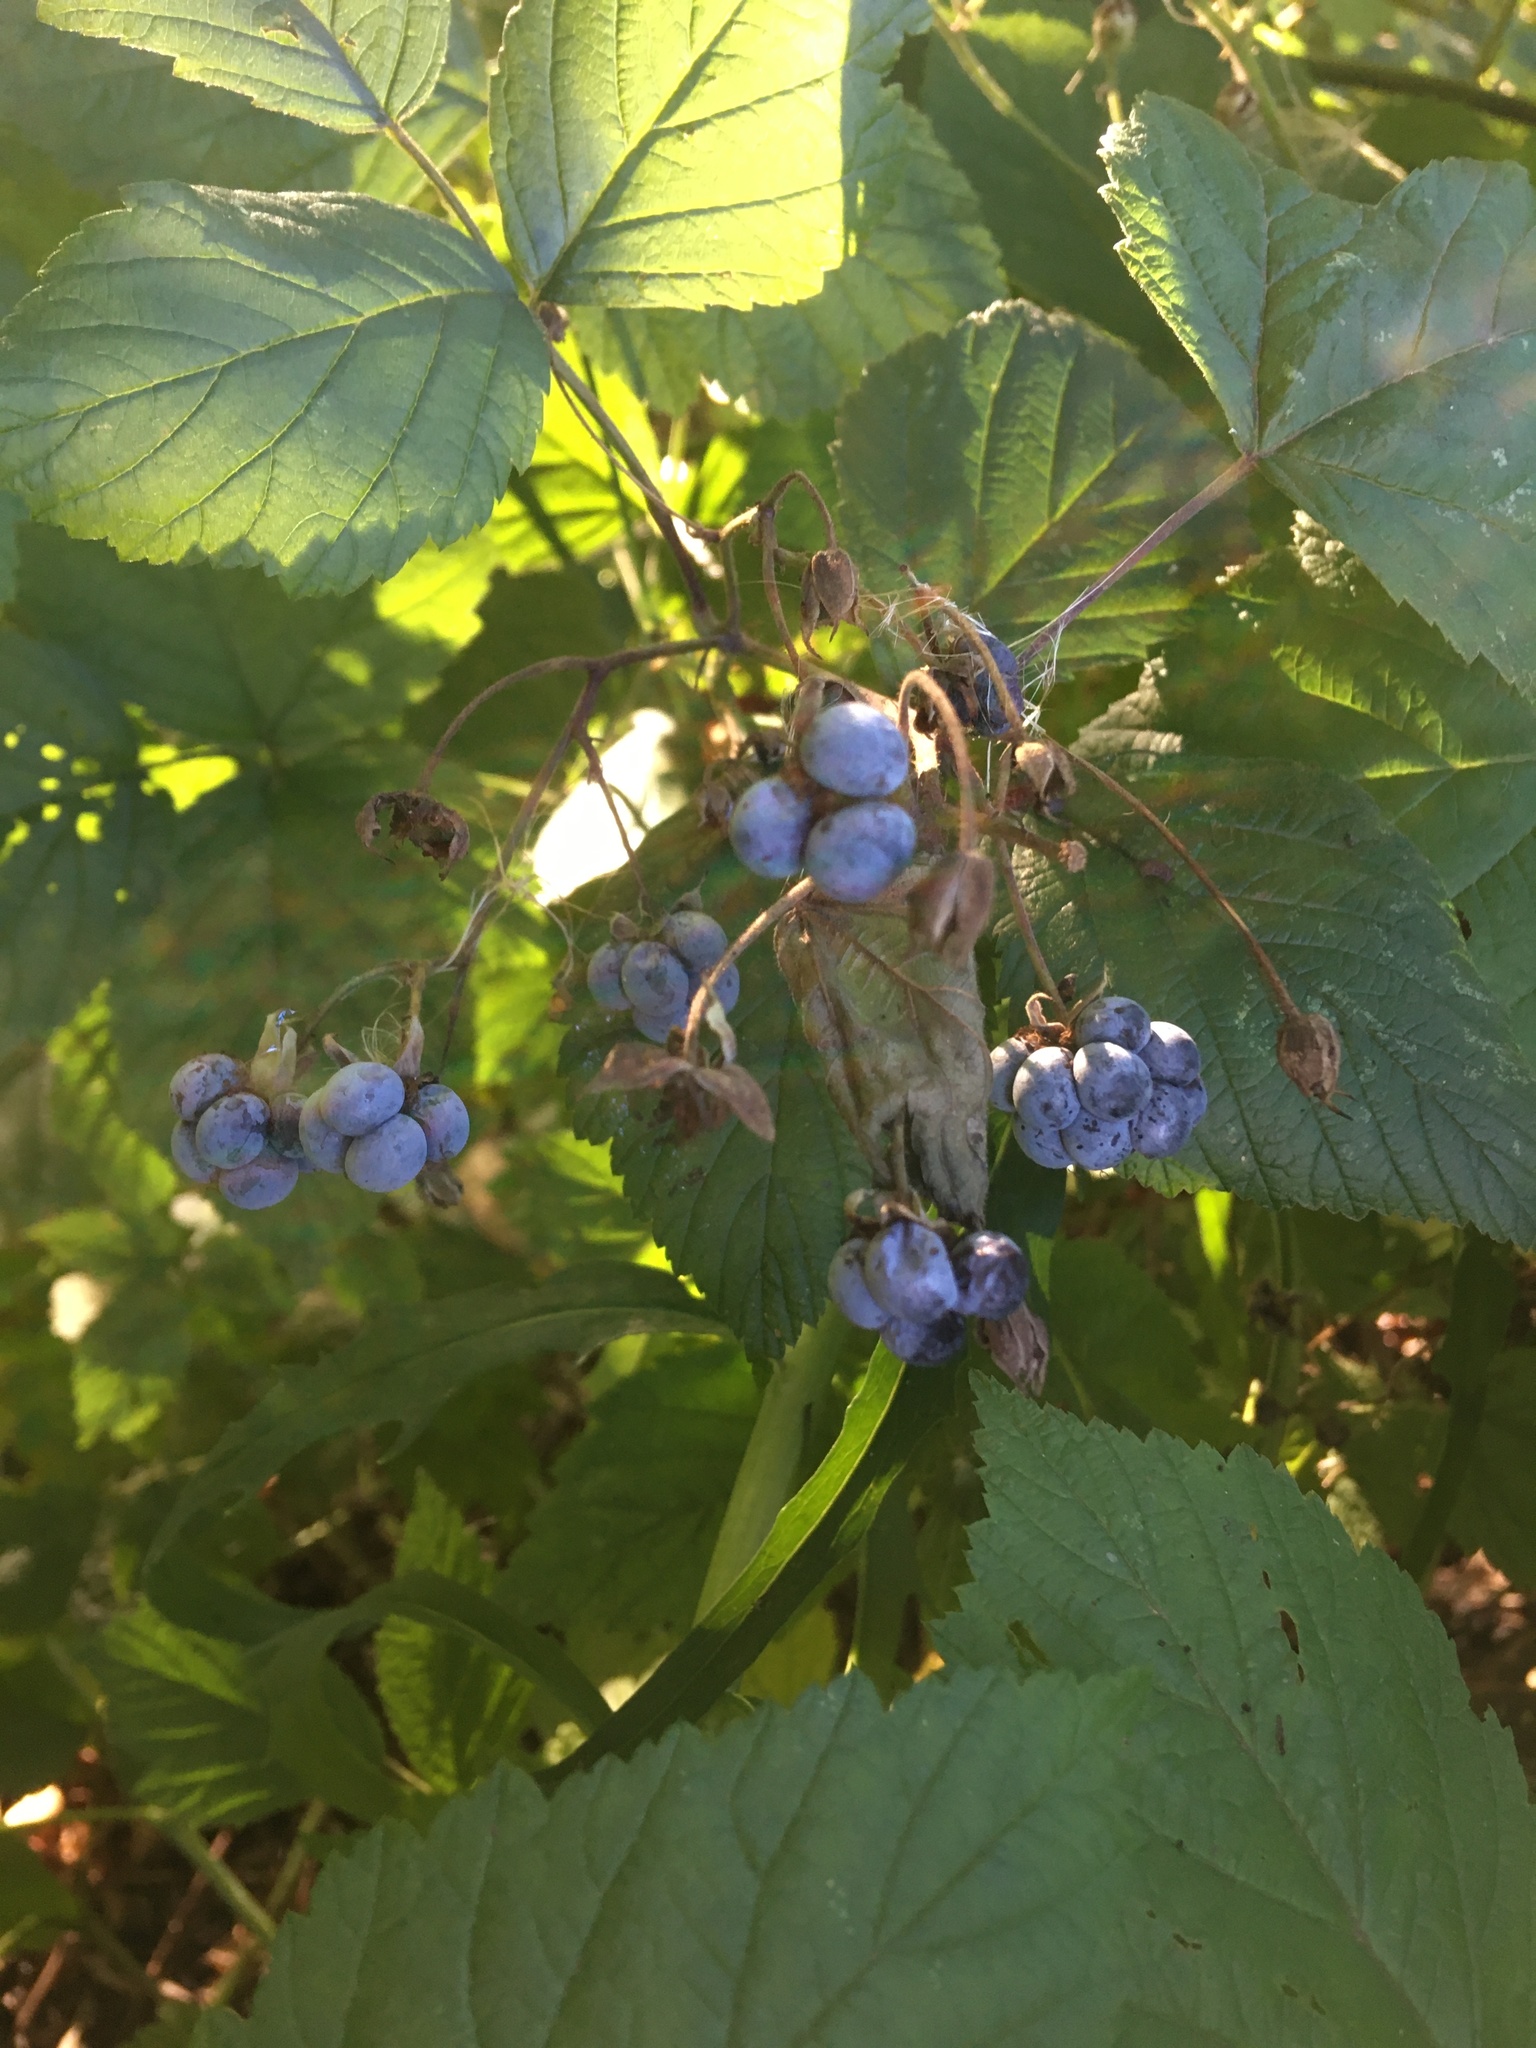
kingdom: Plantae
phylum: Tracheophyta
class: Magnoliopsida
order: Rosales
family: Rosaceae
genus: Rubus
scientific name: Rubus caesius
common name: Dewberry
